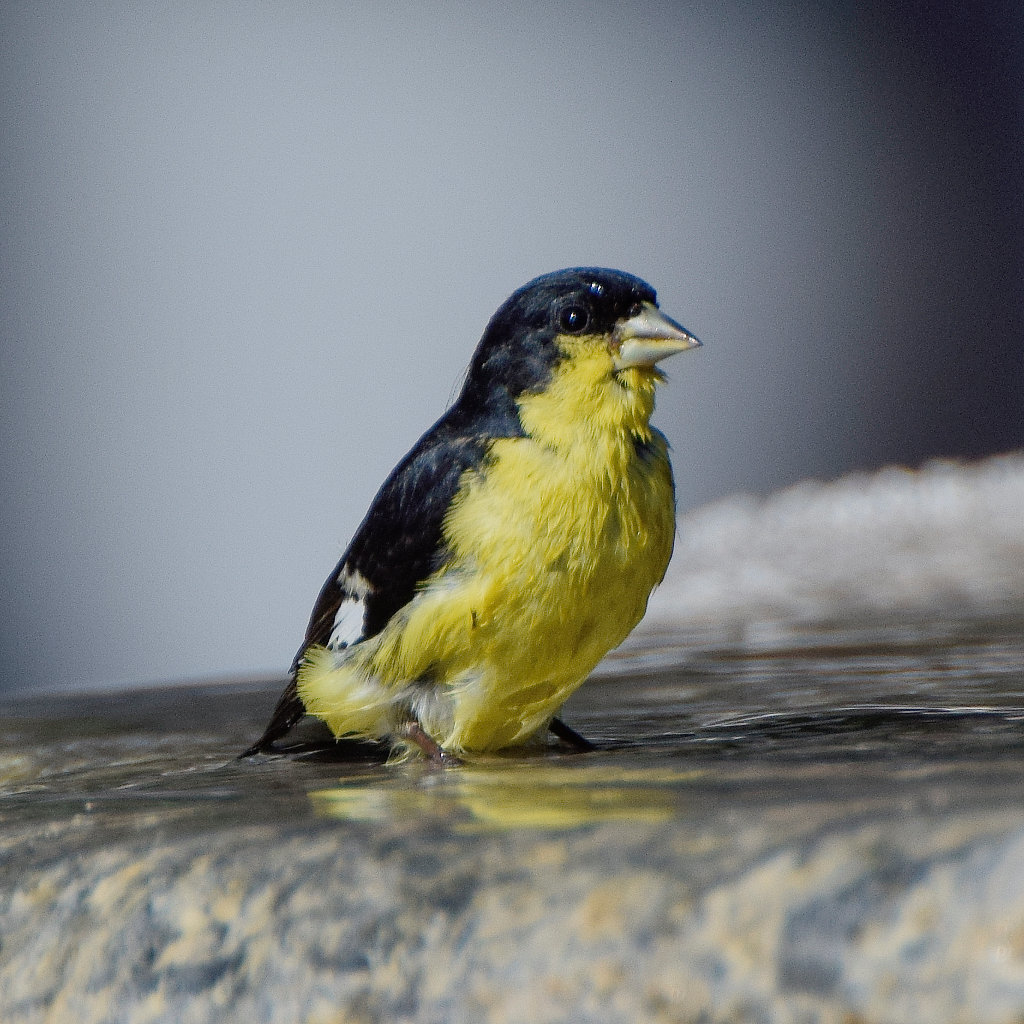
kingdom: Animalia
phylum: Chordata
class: Aves
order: Passeriformes
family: Fringillidae
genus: Spinus
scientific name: Spinus psaltria
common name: Lesser goldfinch
